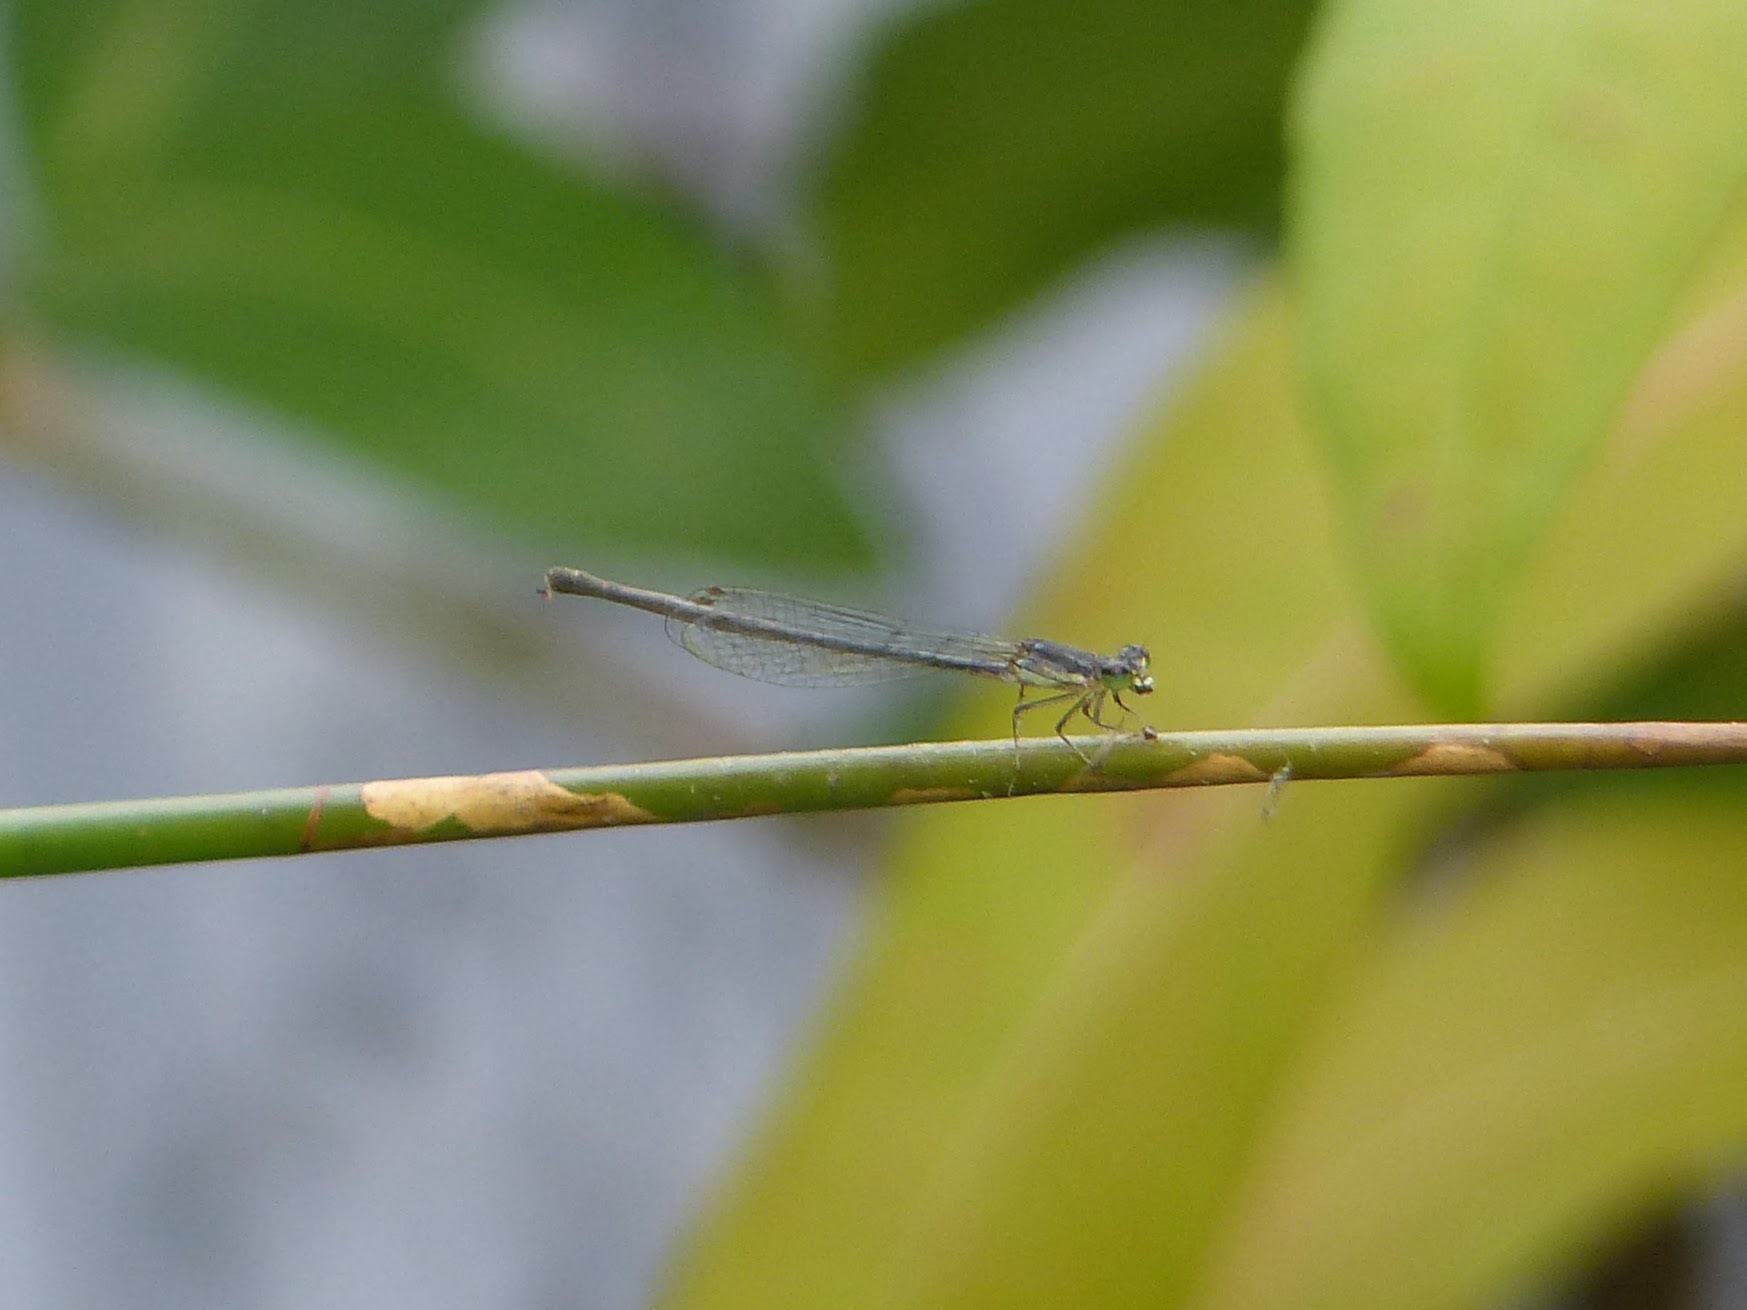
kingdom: Animalia
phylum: Arthropoda
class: Insecta
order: Odonata
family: Coenagrionidae
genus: Ischnura
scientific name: Ischnura posita
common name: Fragile forktail
